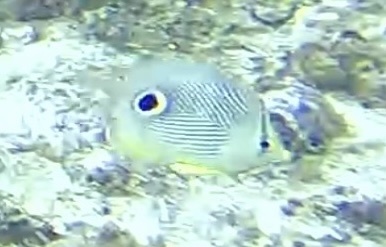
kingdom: Animalia
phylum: Chordata
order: Perciformes
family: Chaetodontidae
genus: Chaetodon
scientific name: Chaetodon capistratus
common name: Kete
